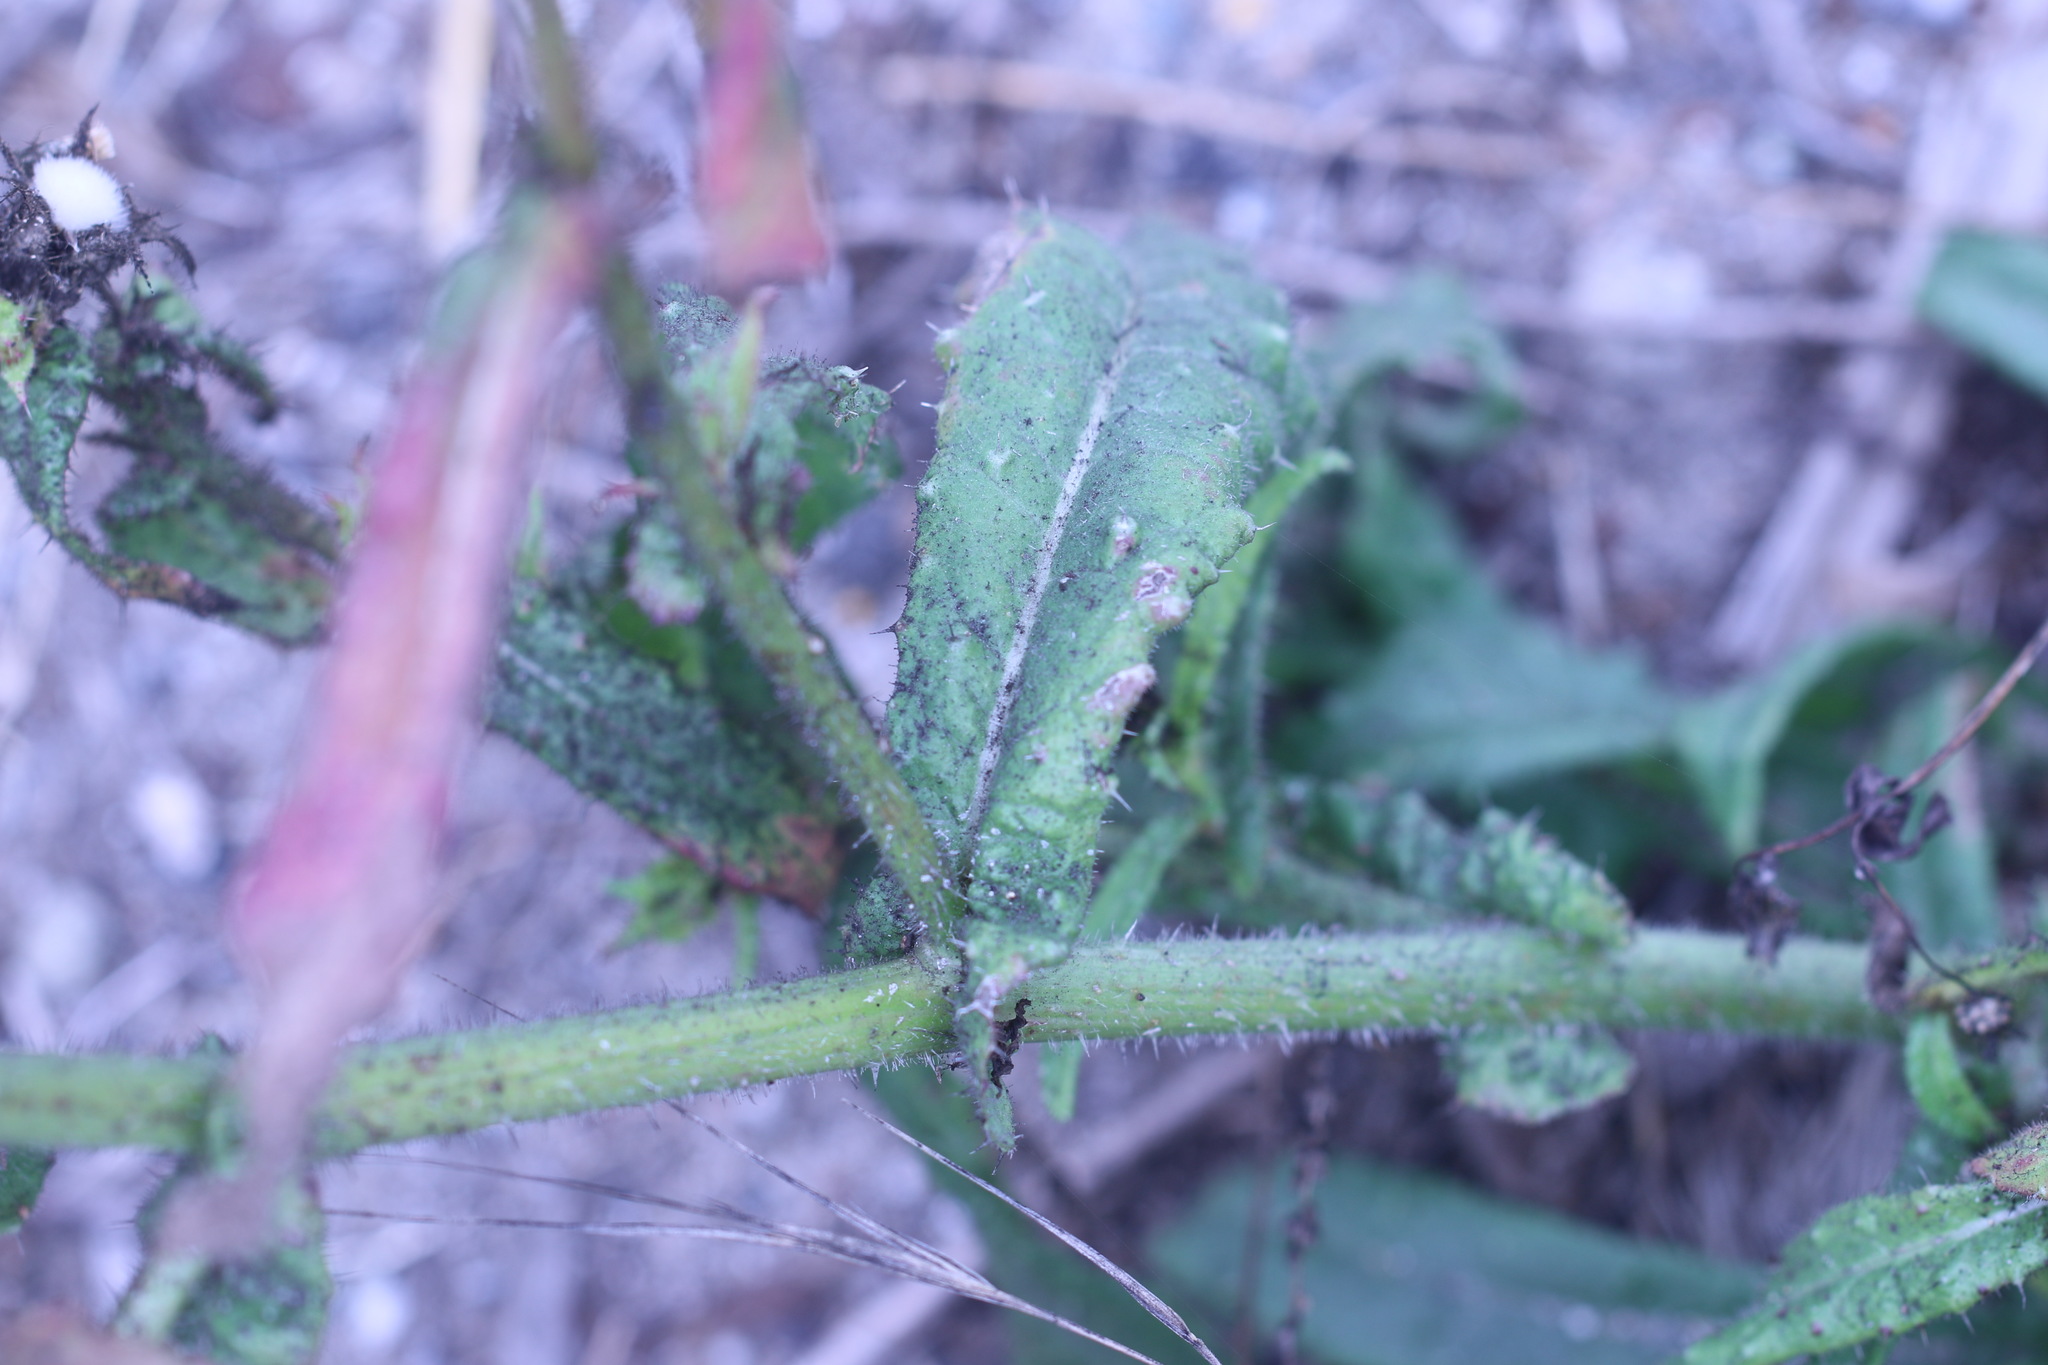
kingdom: Plantae
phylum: Tracheophyta
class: Magnoliopsida
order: Asterales
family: Asteraceae
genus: Helminthotheca
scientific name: Helminthotheca echioides
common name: Ox-tongue
